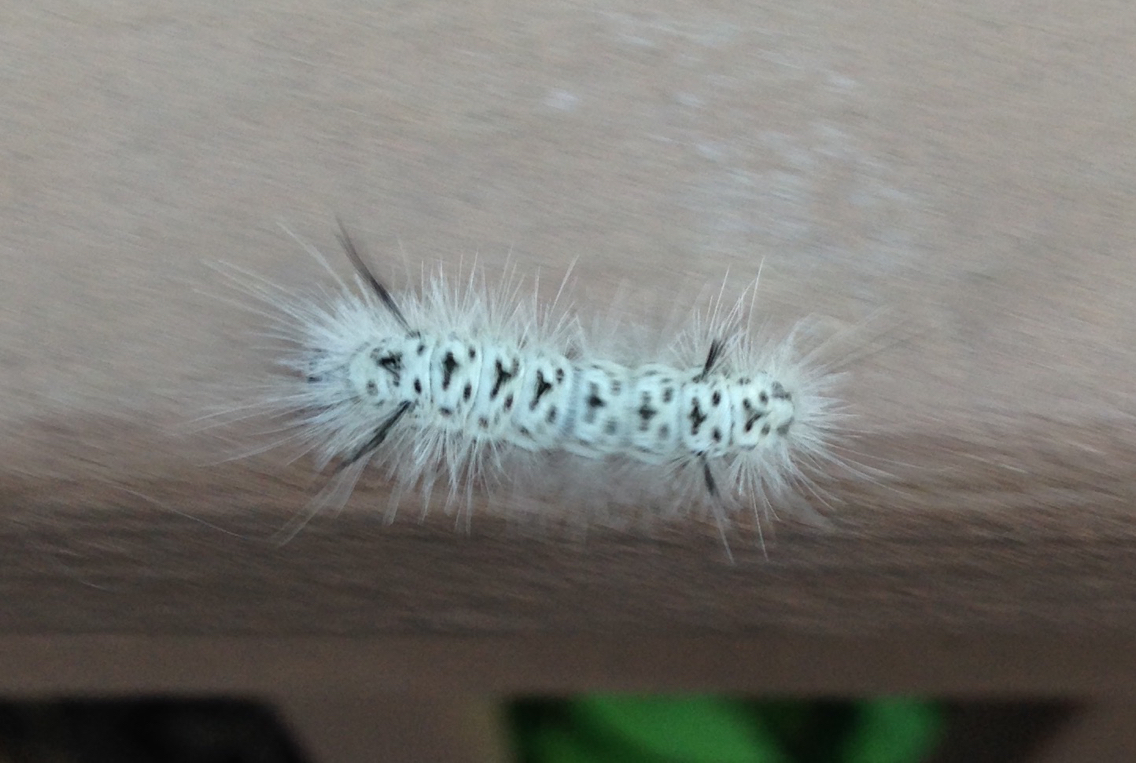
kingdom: Animalia
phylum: Arthropoda
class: Insecta
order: Lepidoptera
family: Erebidae
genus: Lophocampa
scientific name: Lophocampa caryae
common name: Hickory tussock moth
